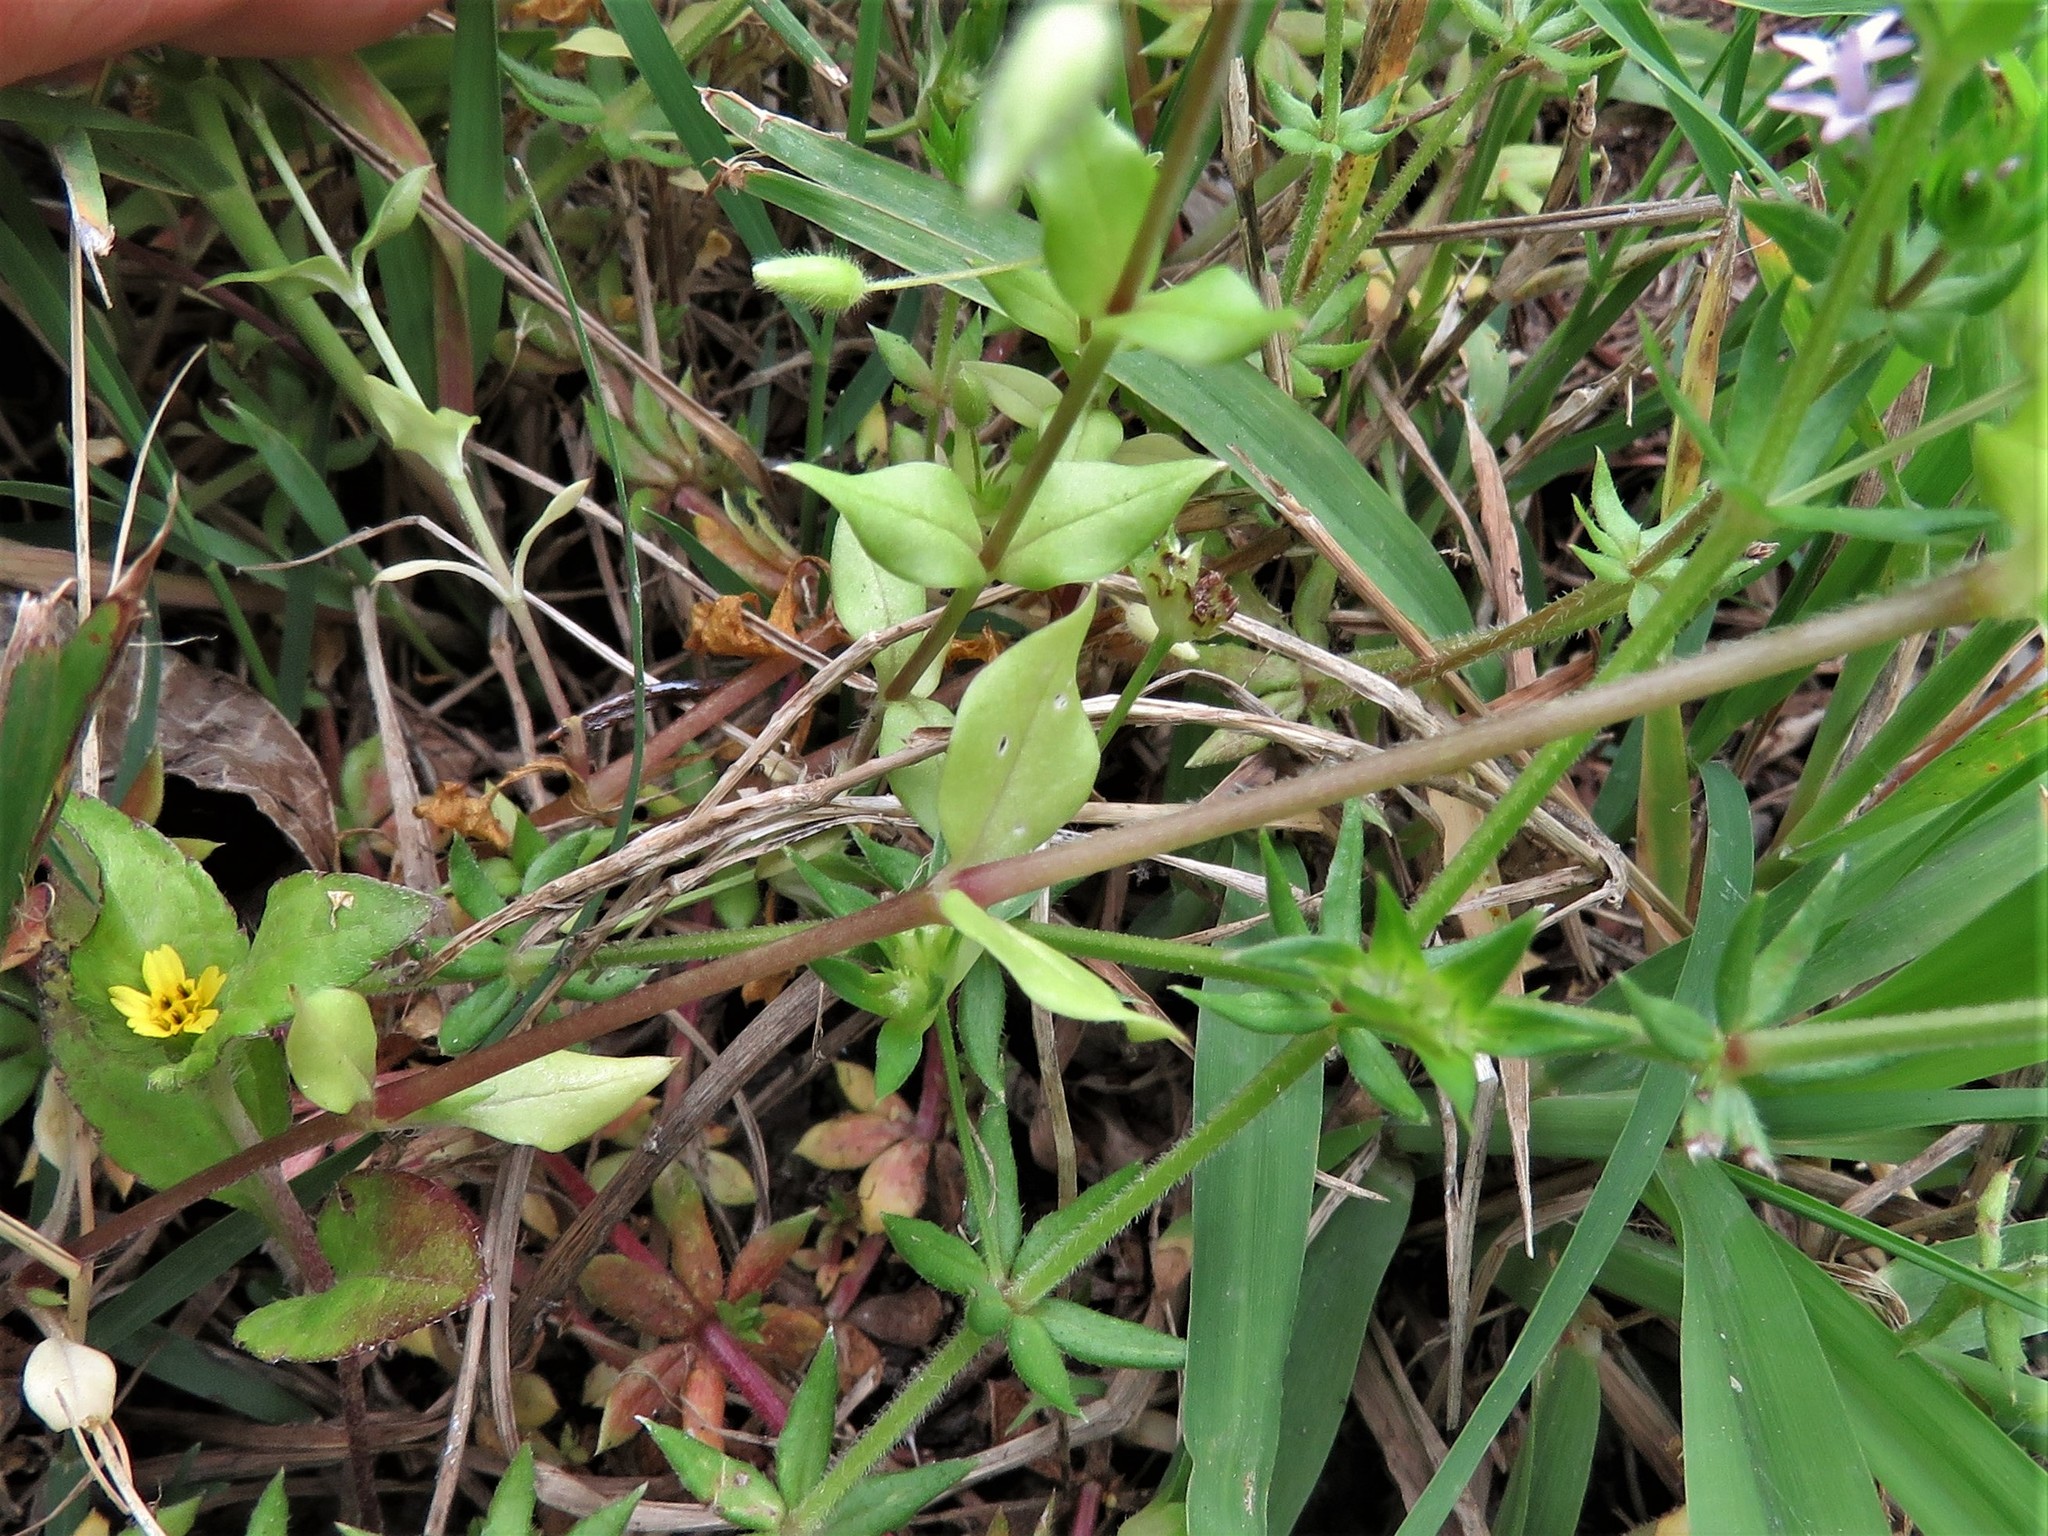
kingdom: Plantae
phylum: Tracheophyta
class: Magnoliopsida
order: Caryophyllales
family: Caryophyllaceae
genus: Stellaria
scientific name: Stellaria media
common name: Common chickweed
